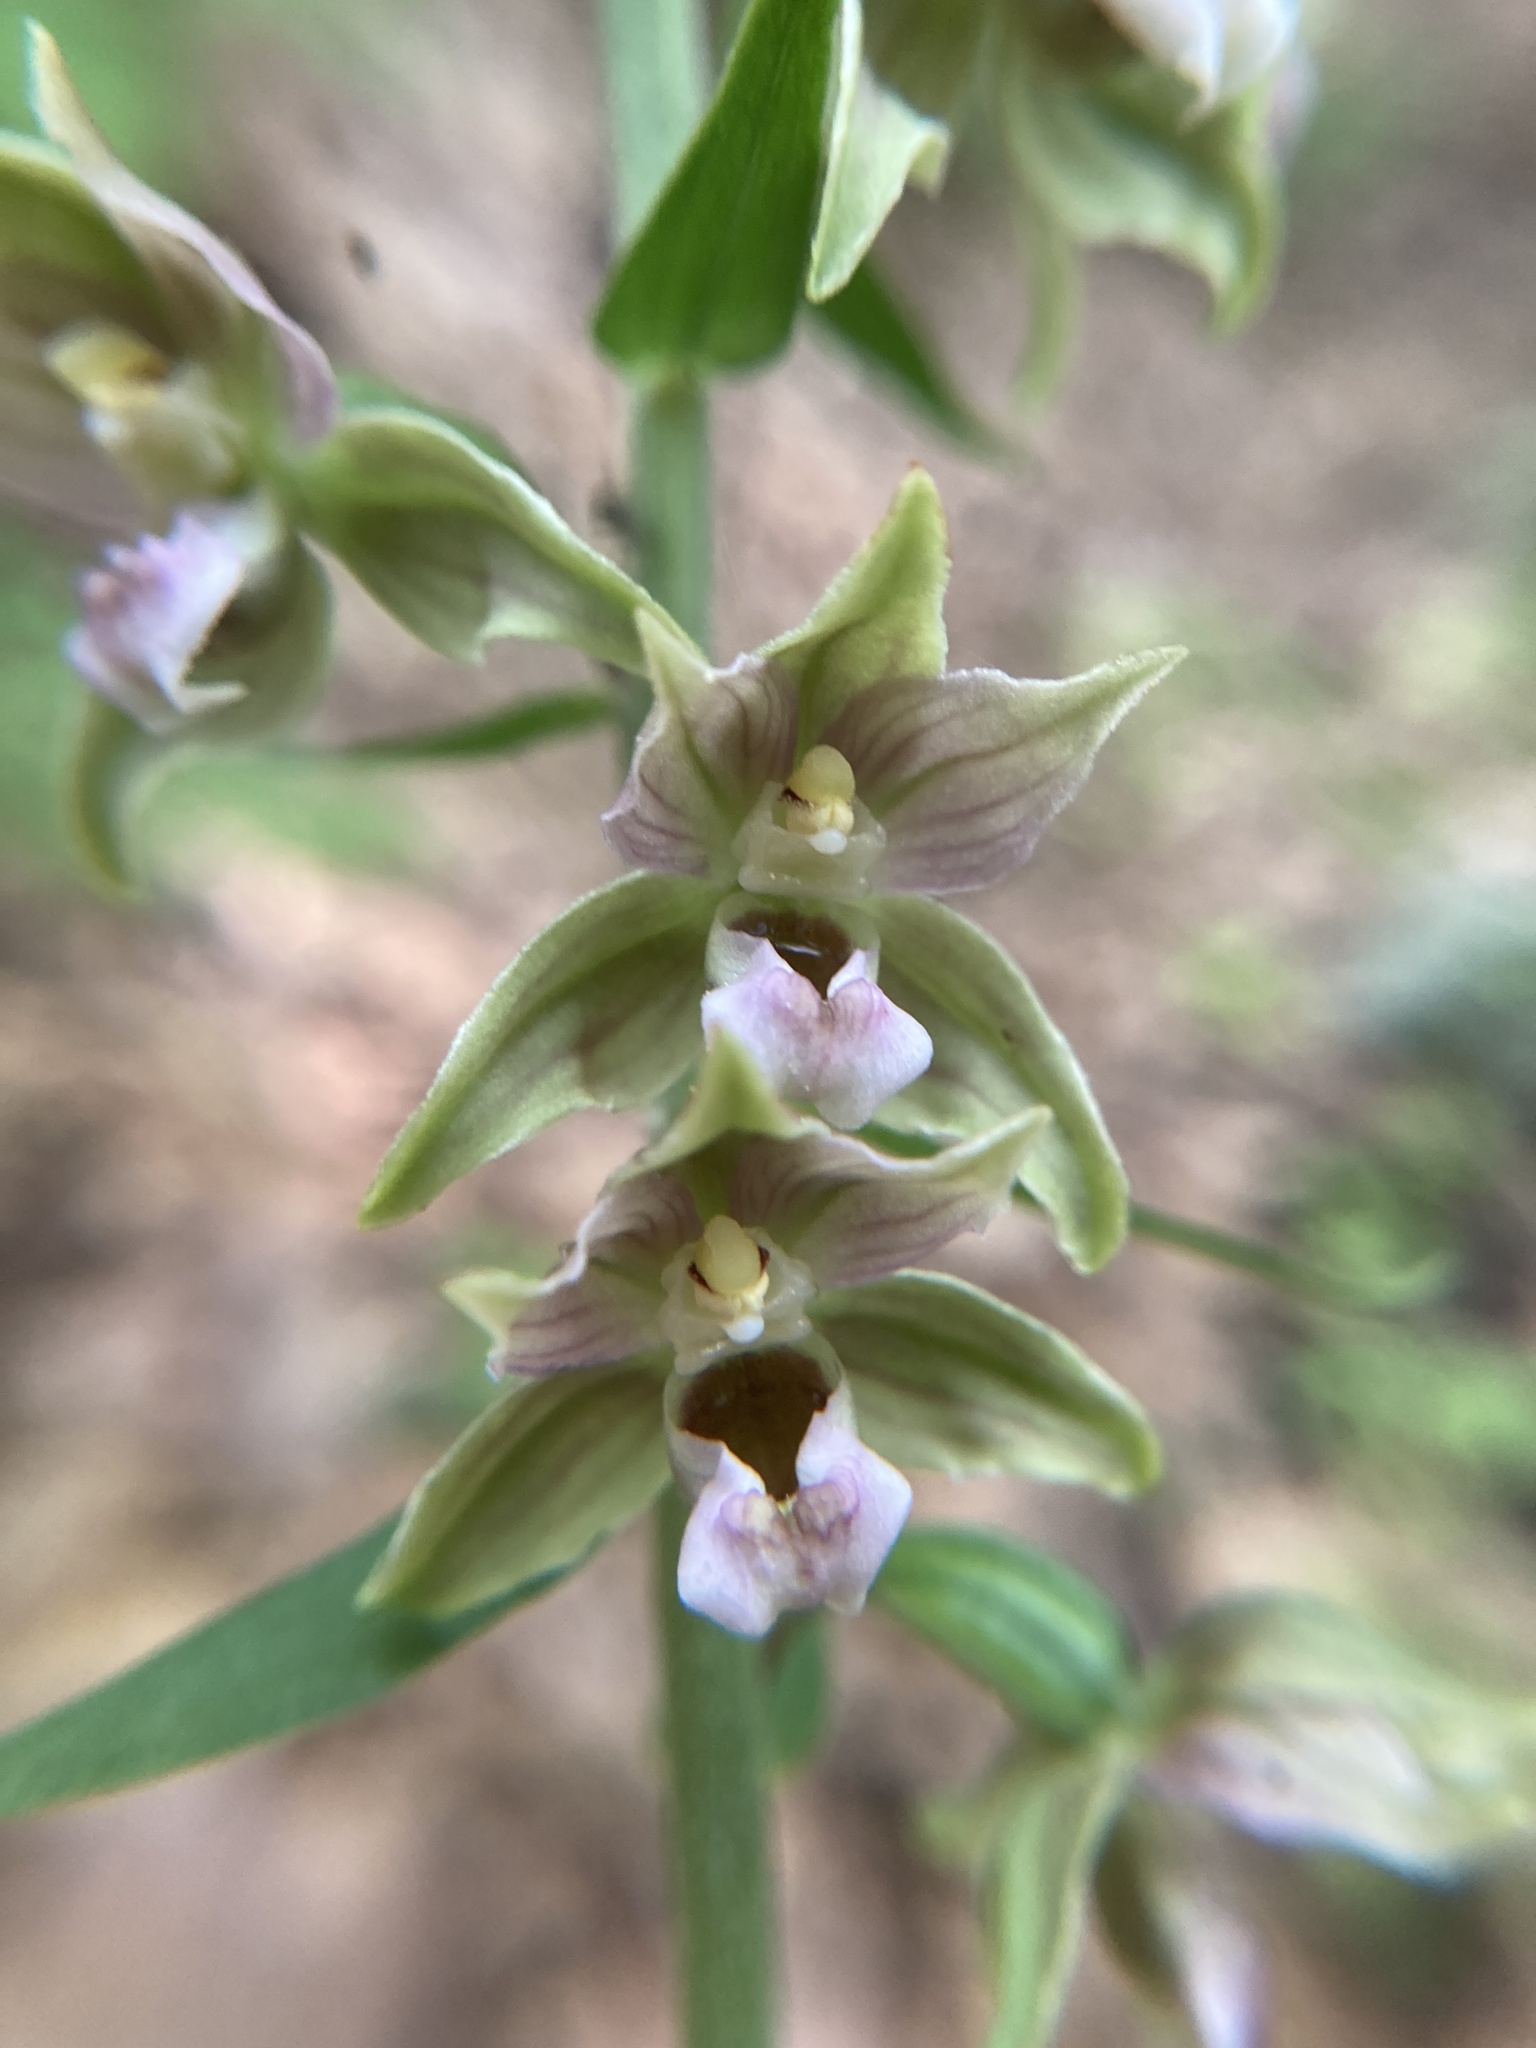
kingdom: Plantae
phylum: Tracheophyta
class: Liliopsida
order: Asparagales
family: Orchidaceae
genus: Epipactis
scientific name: Epipactis helleborine
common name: Broad-leaved helleborine
